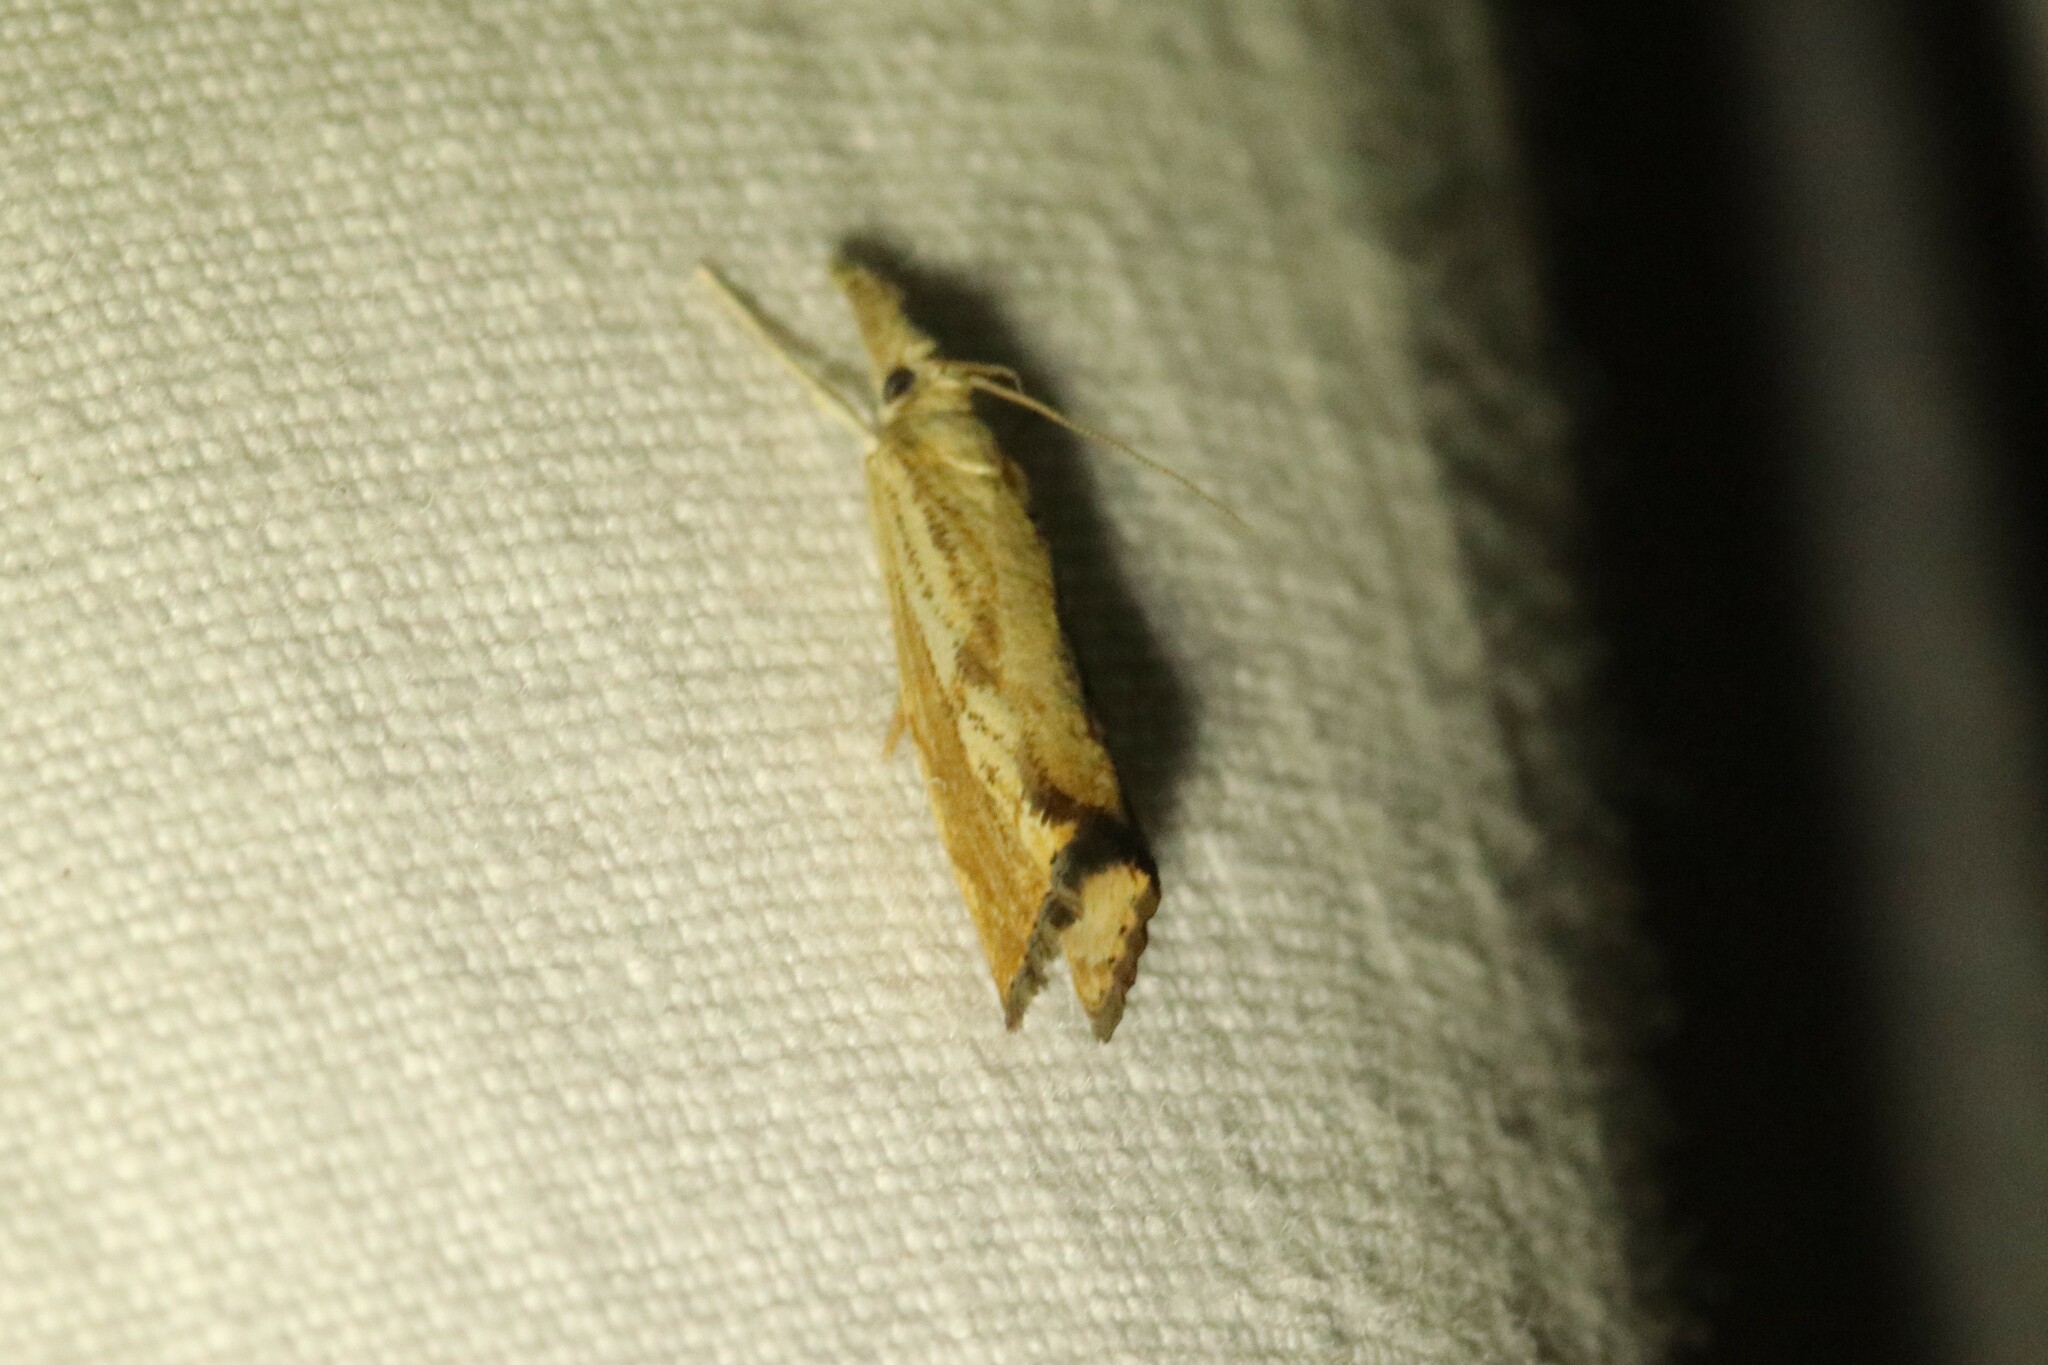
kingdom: Animalia
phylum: Arthropoda
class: Insecta
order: Lepidoptera
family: Crambidae
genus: Agriphila
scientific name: Agriphila ruricolellus
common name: Lesser vagabond sod webworm
